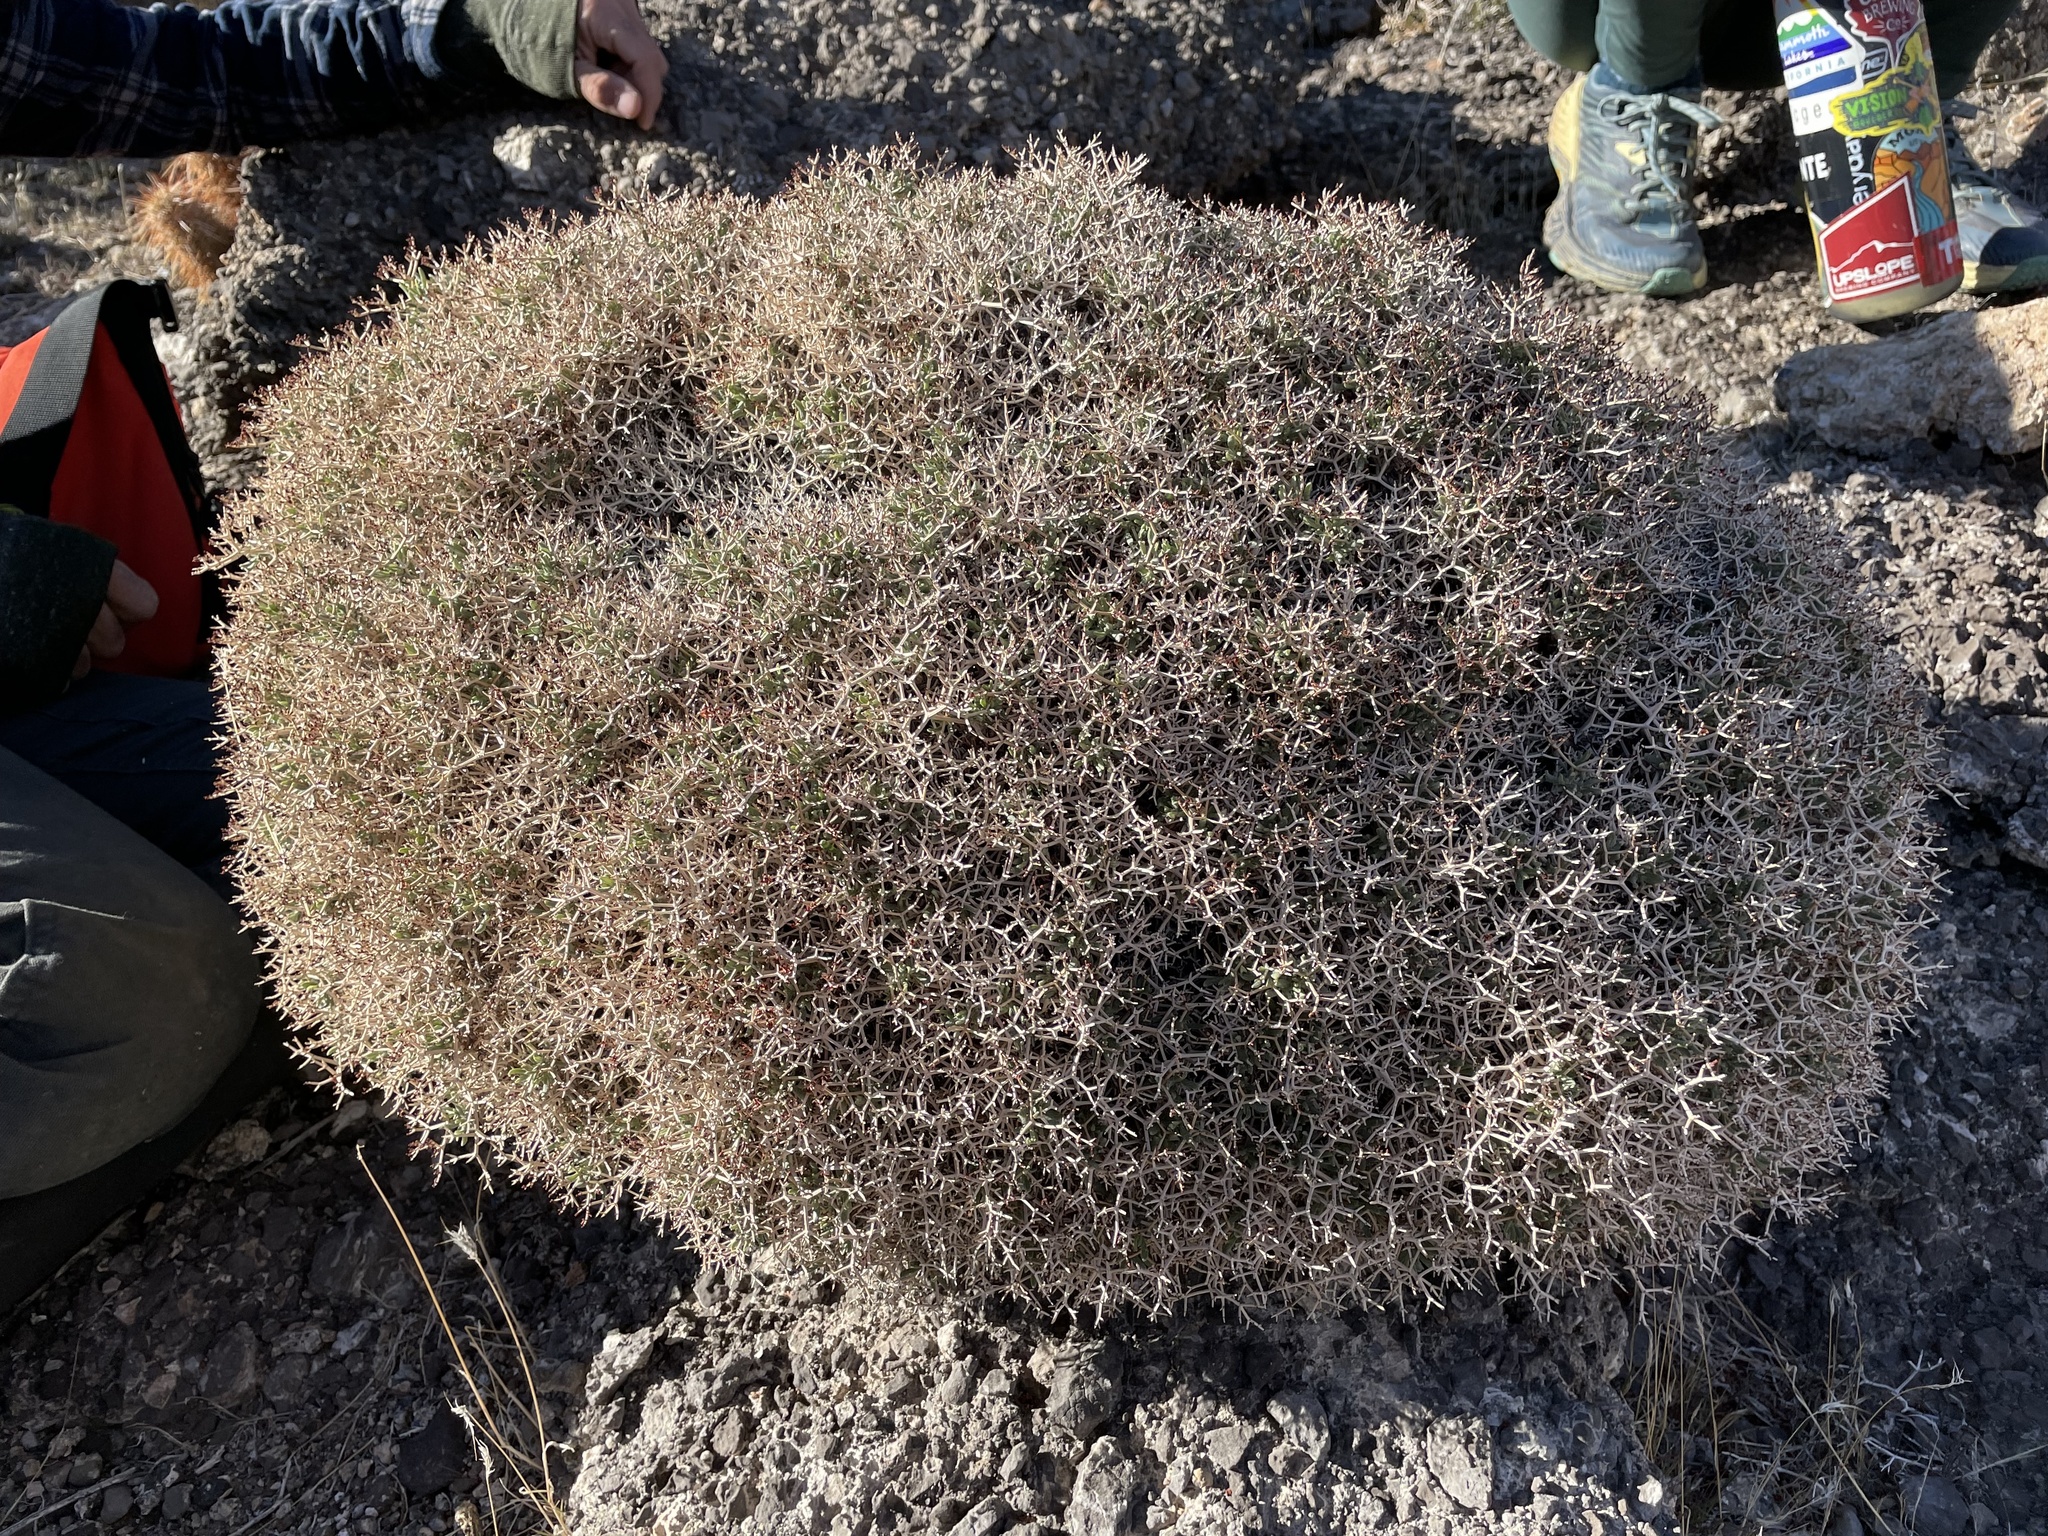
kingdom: Plantae
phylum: Tracheophyta
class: Magnoliopsida
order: Caryophyllales
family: Polygonaceae
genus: Eriogonum
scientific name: Eriogonum heermannii
